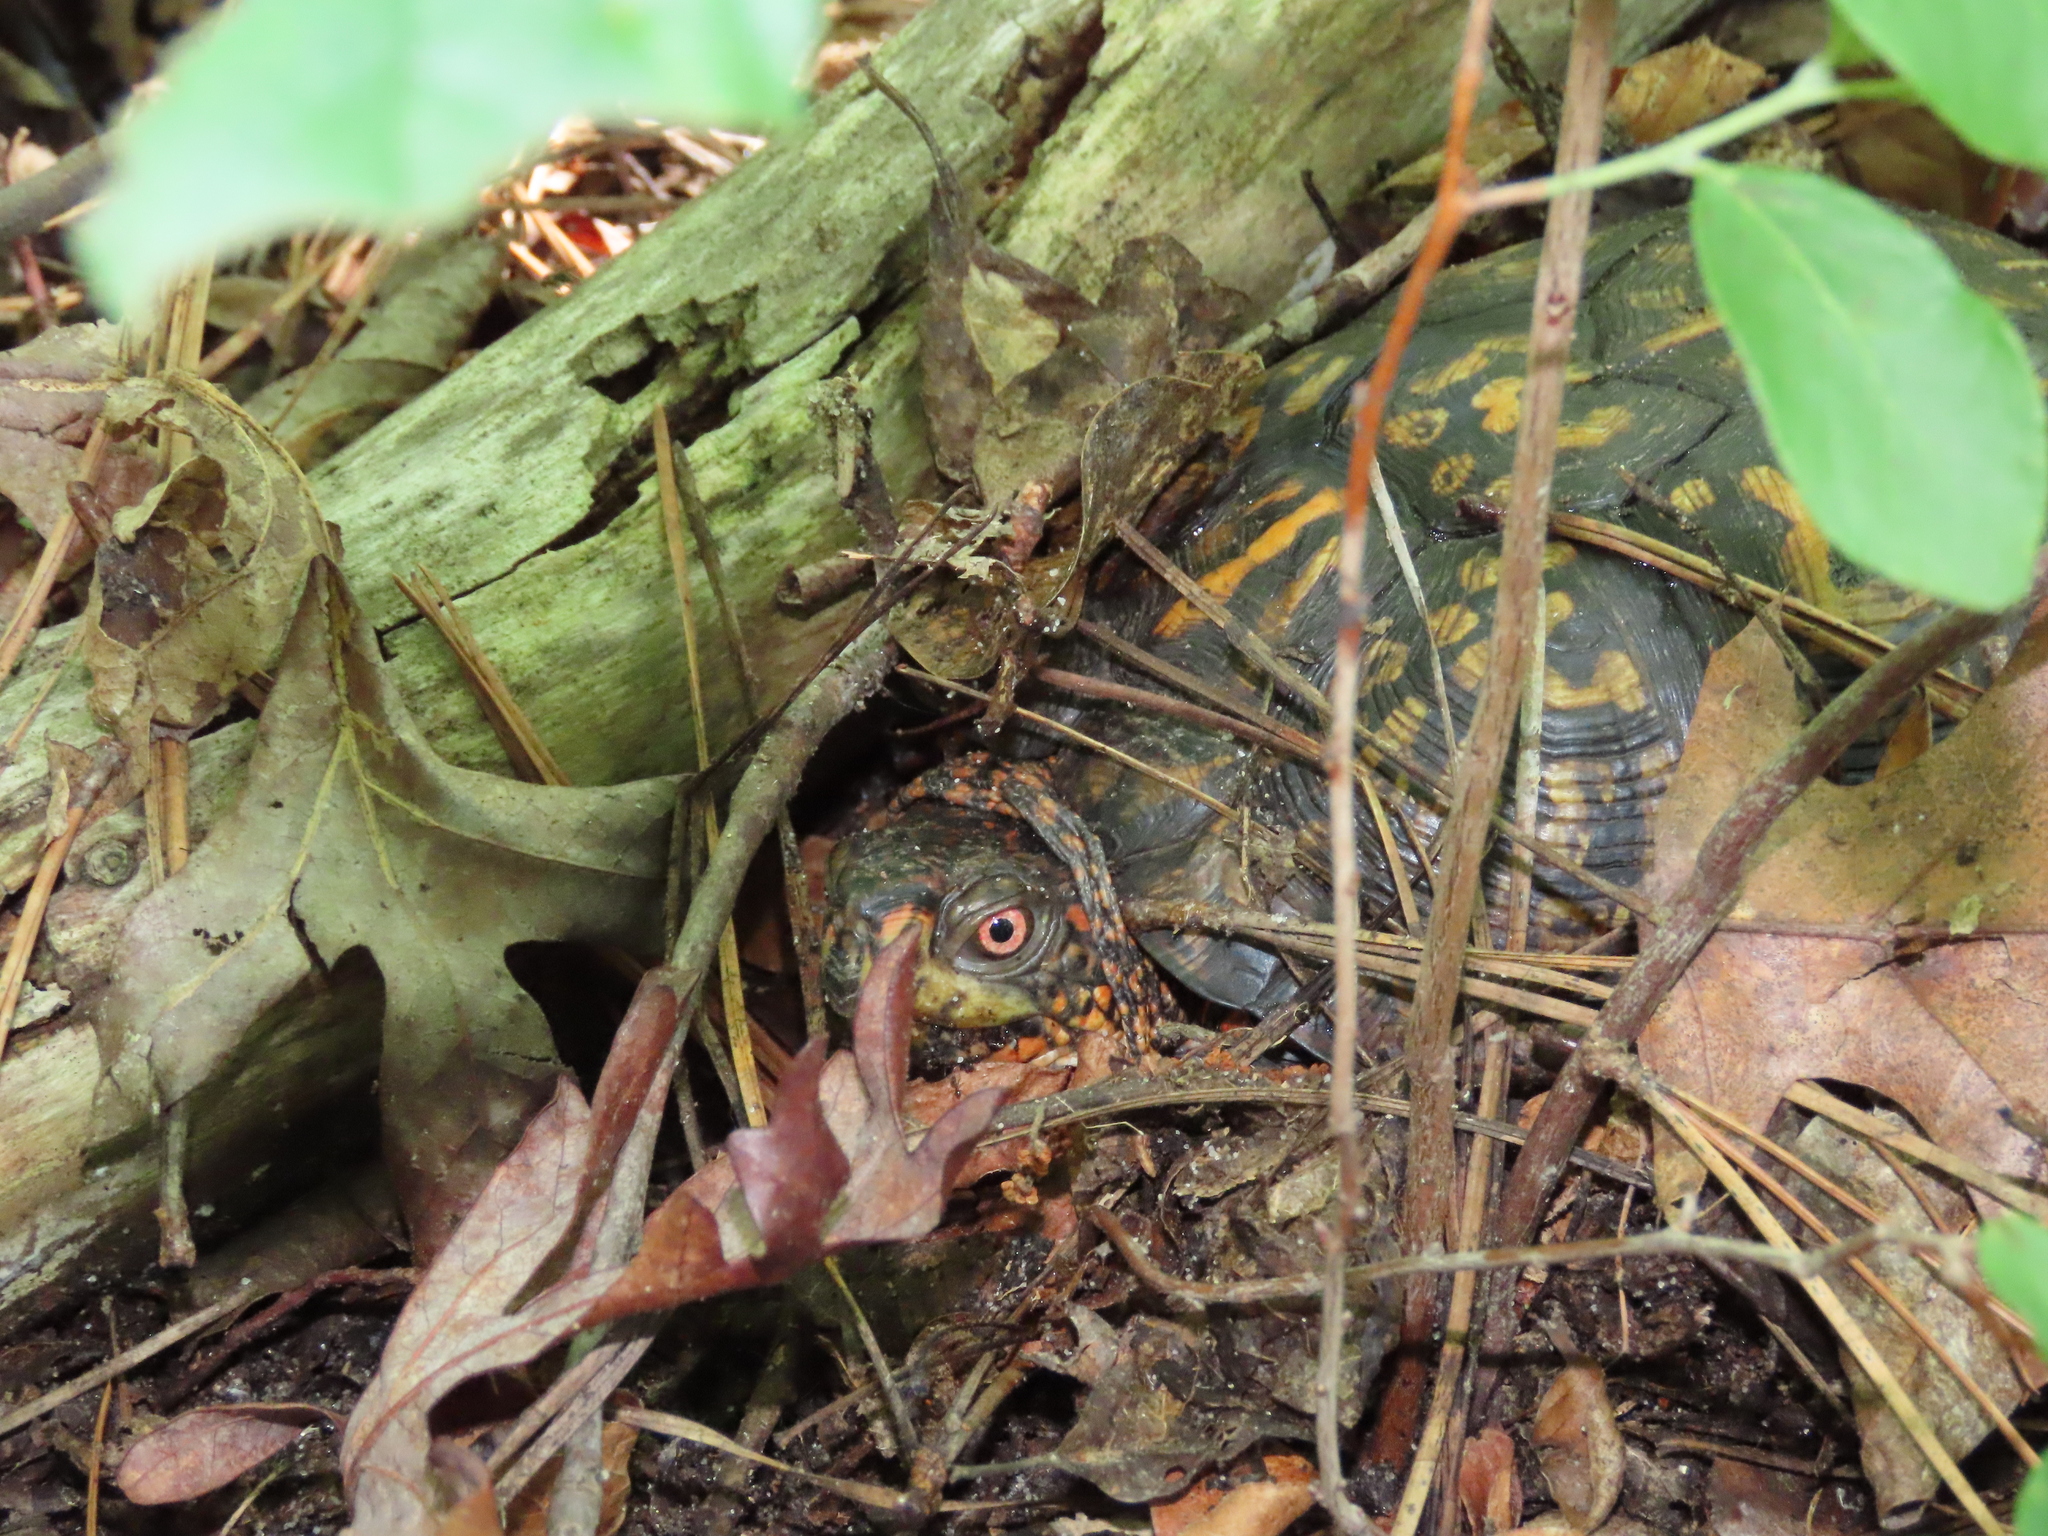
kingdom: Animalia
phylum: Chordata
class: Testudines
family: Emydidae
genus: Terrapene
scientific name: Terrapene carolina
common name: Common box turtle
